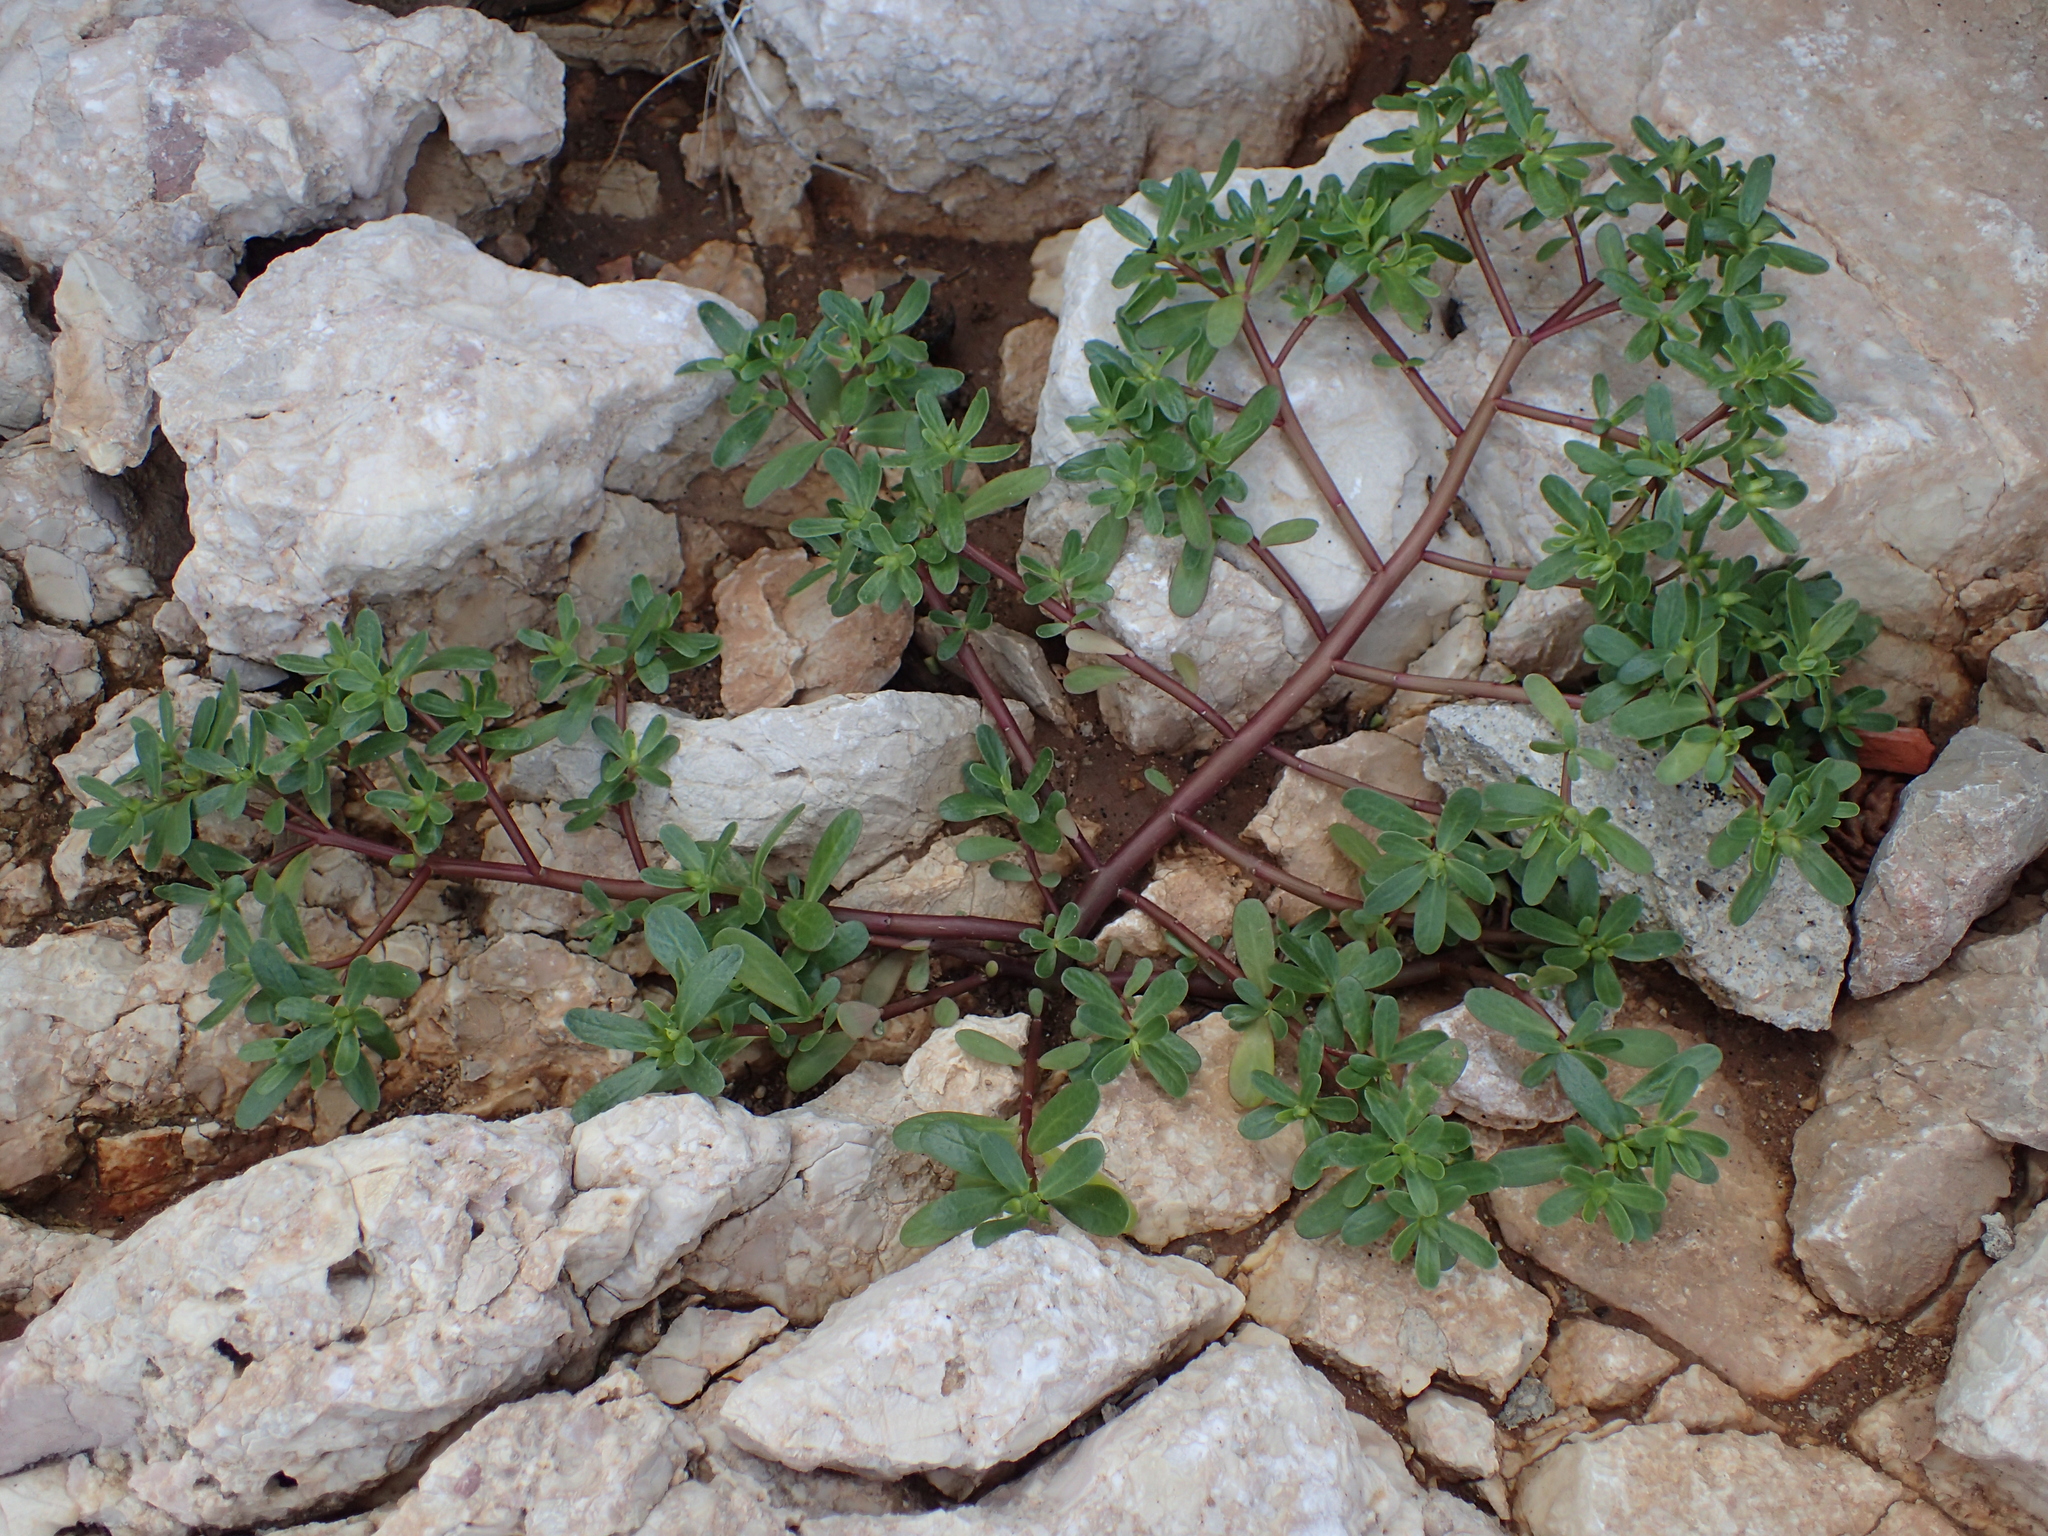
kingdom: Plantae
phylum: Tracheophyta
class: Magnoliopsida
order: Caryophyllales
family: Portulacaceae
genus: Portulaca
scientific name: Portulaca oleracea
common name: Common purslane
